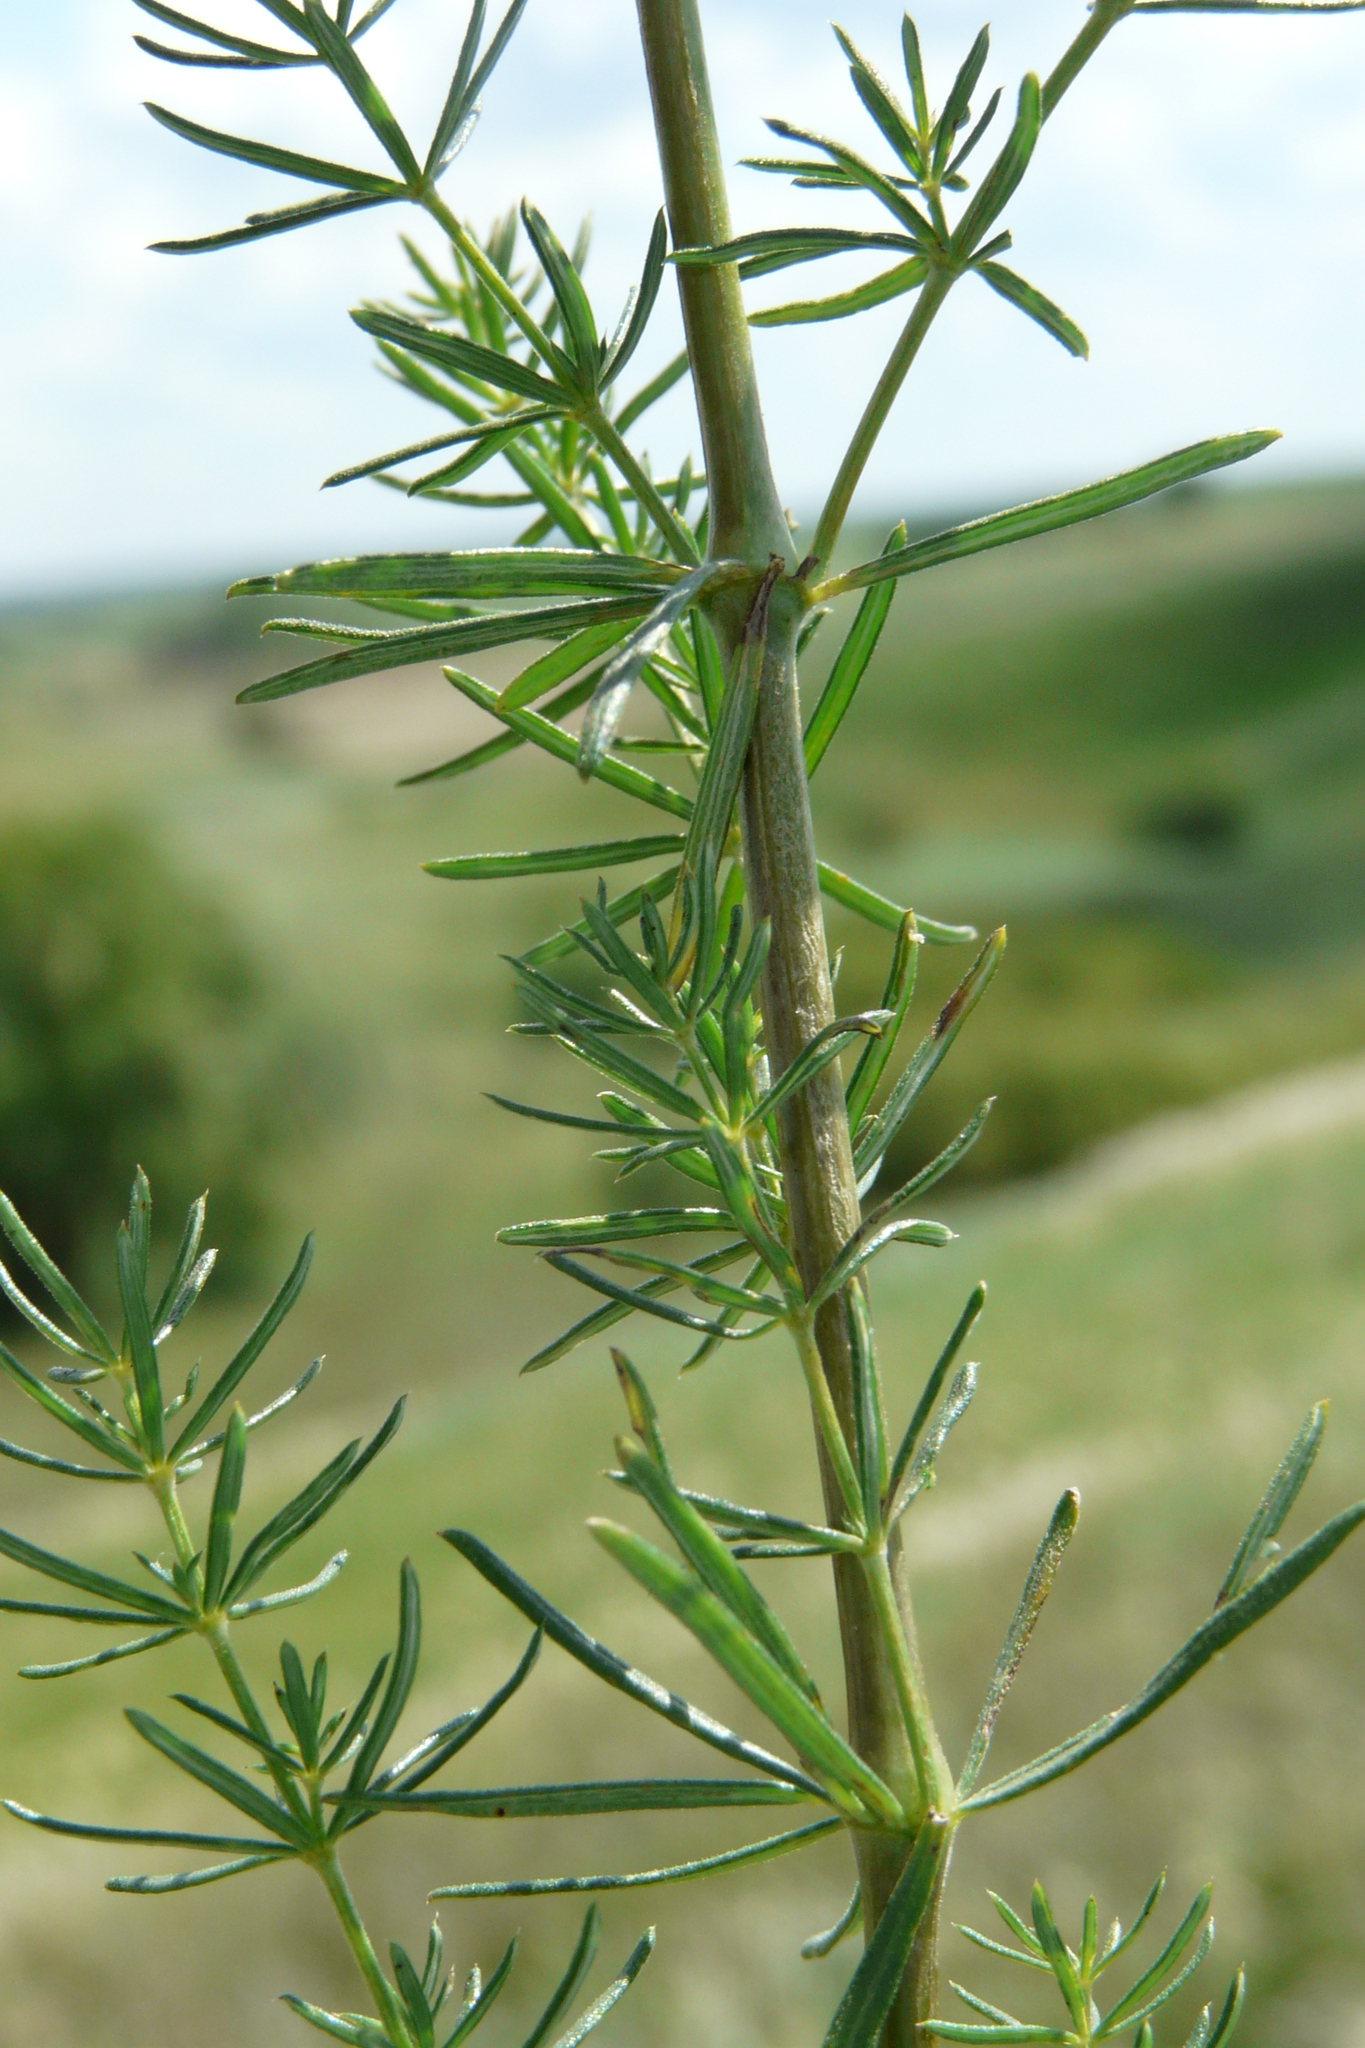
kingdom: Plantae
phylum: Tracheophyta
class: Magnoliopsida
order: Gentianales
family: Rubiaceae
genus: Galium
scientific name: Galium verum
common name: Lady's bedstraw
